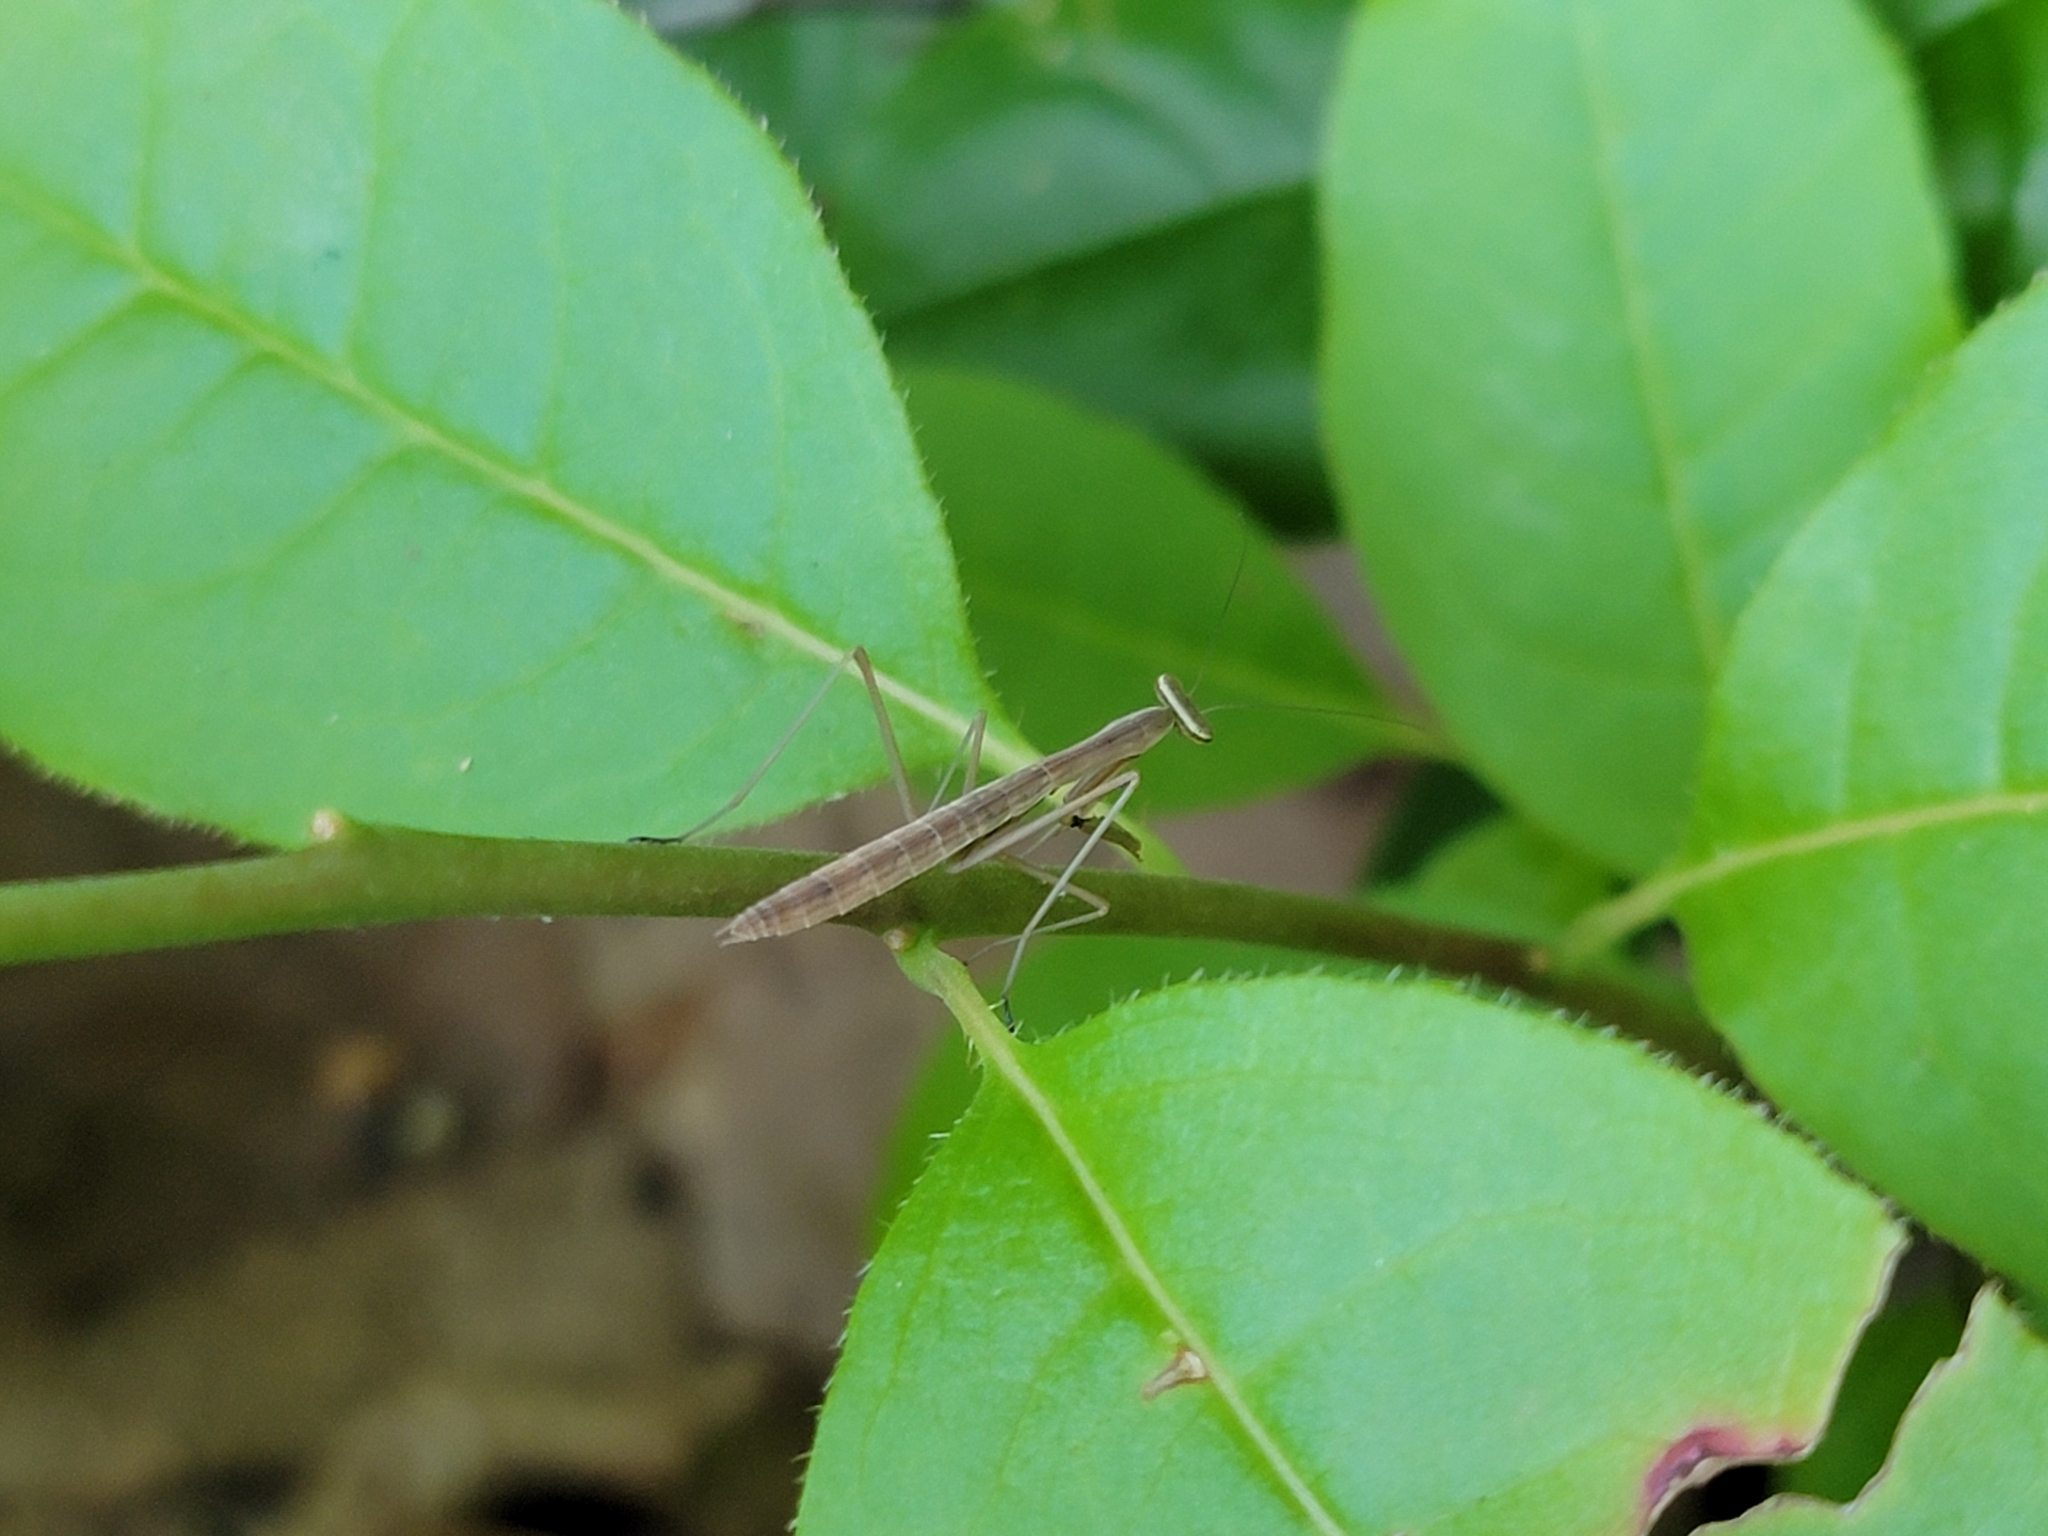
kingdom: Animalia
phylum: Arthropoda
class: Insecta
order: Mantodea
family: Mantidae
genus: Tenodera
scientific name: Tenodera sinensis
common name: Chinese mantis
